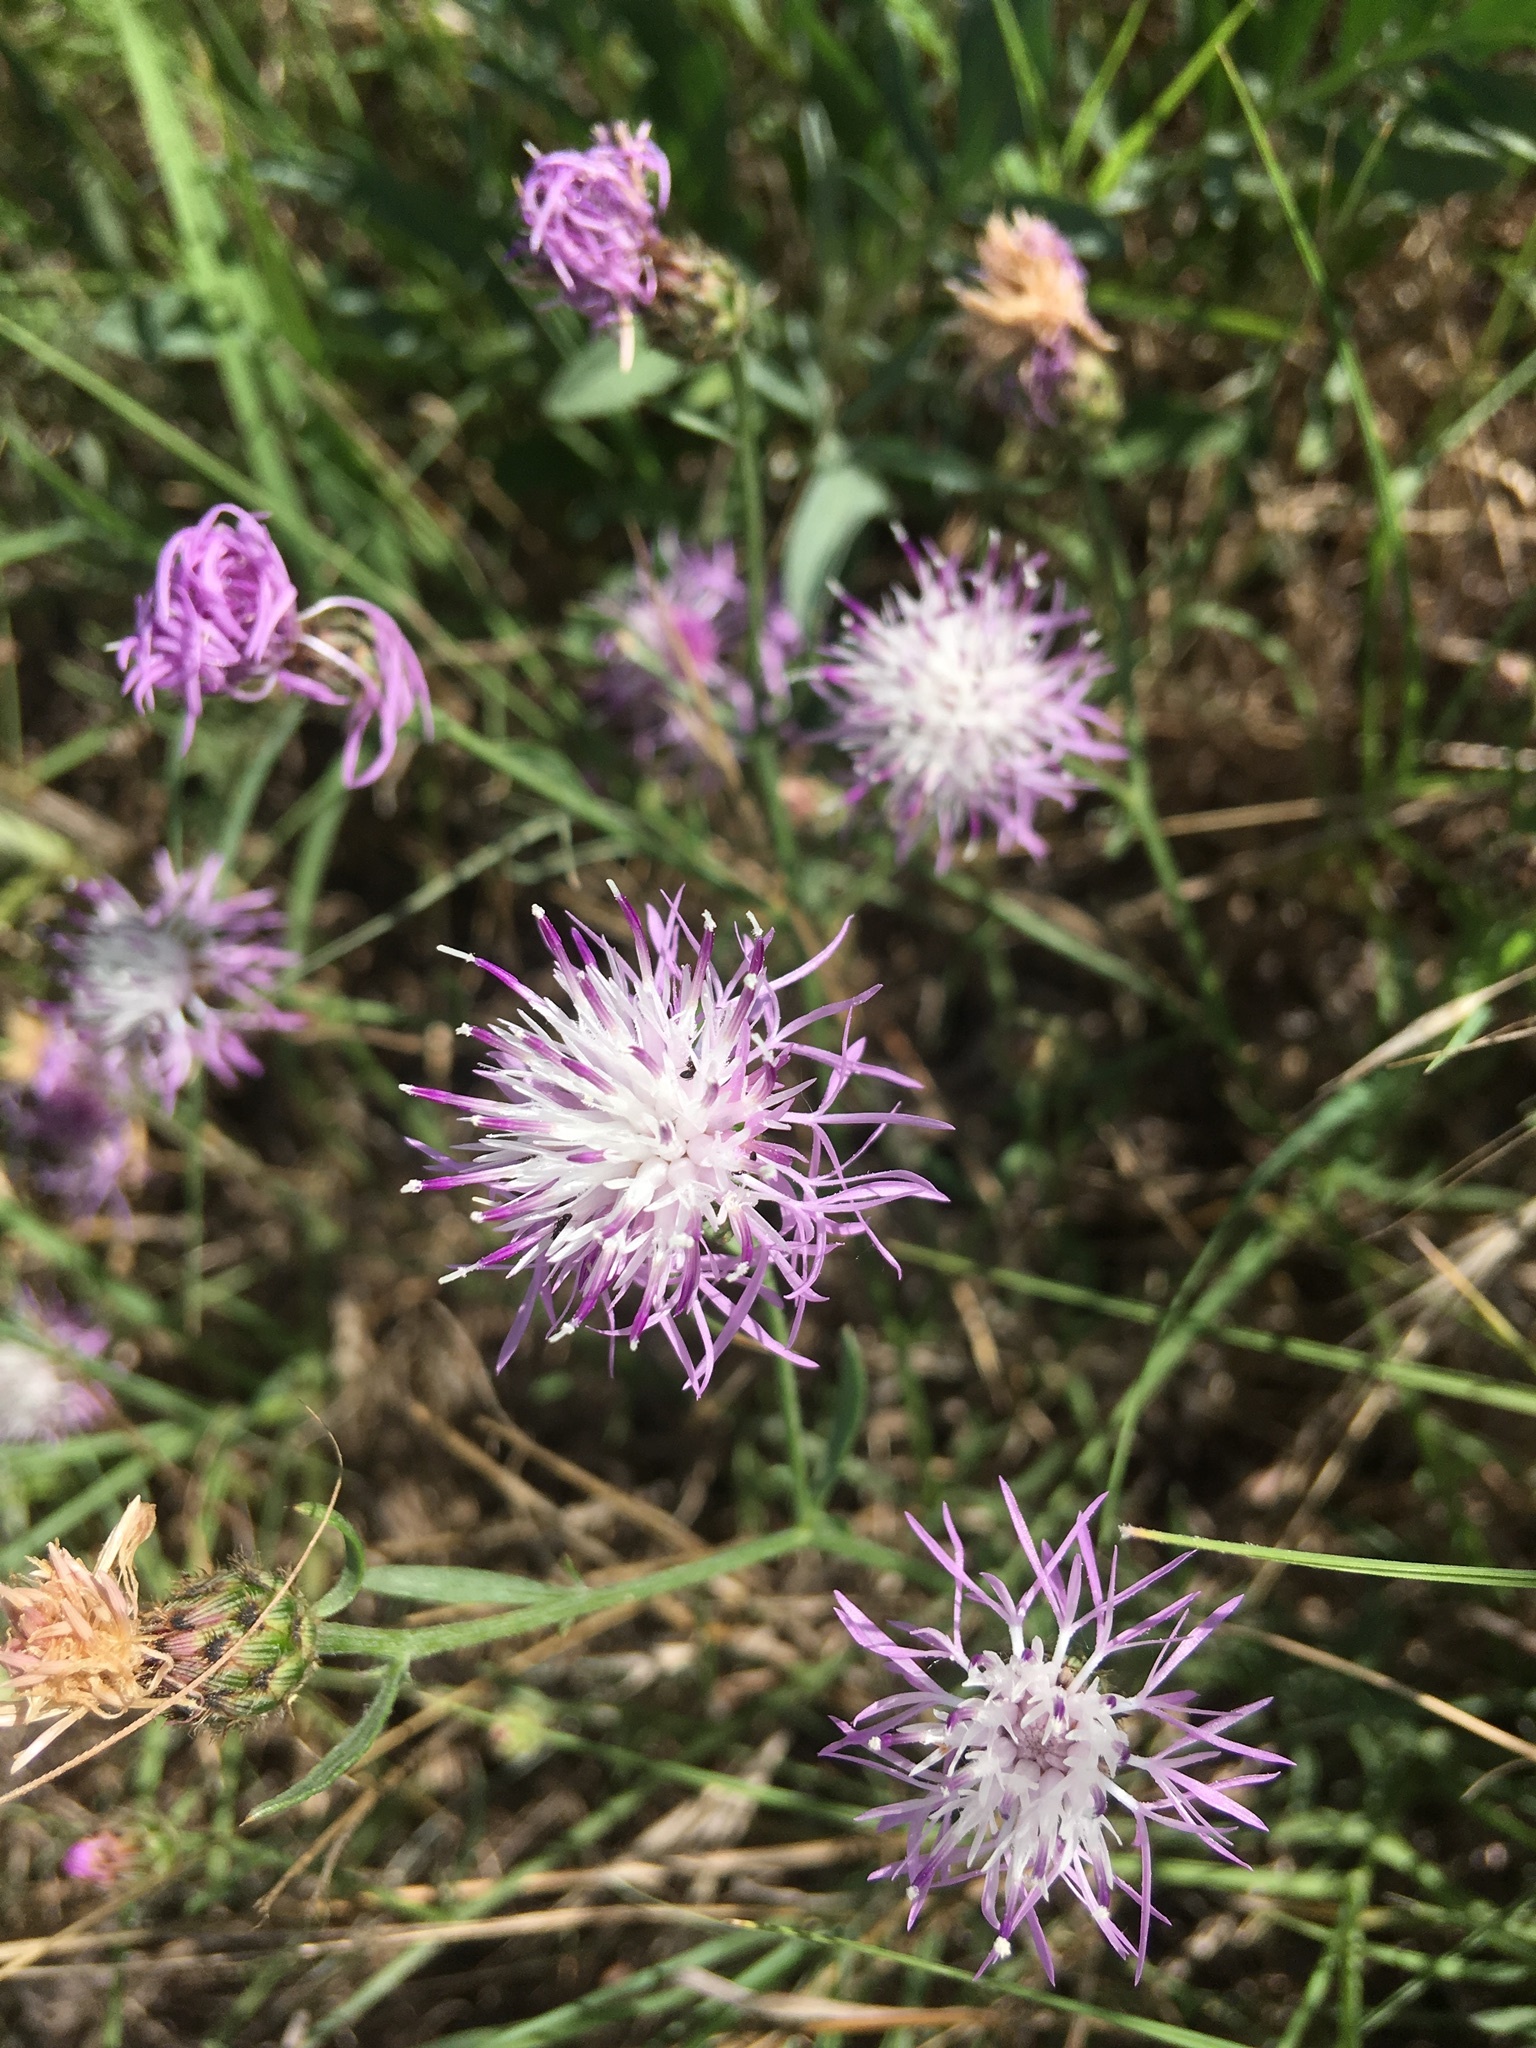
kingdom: Plantae
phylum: Tracheophyta
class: Magnoliopsida
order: Asterales
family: Asteraceae
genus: Centaurea
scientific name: Centaurea stoebe
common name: Spotted knapweed
